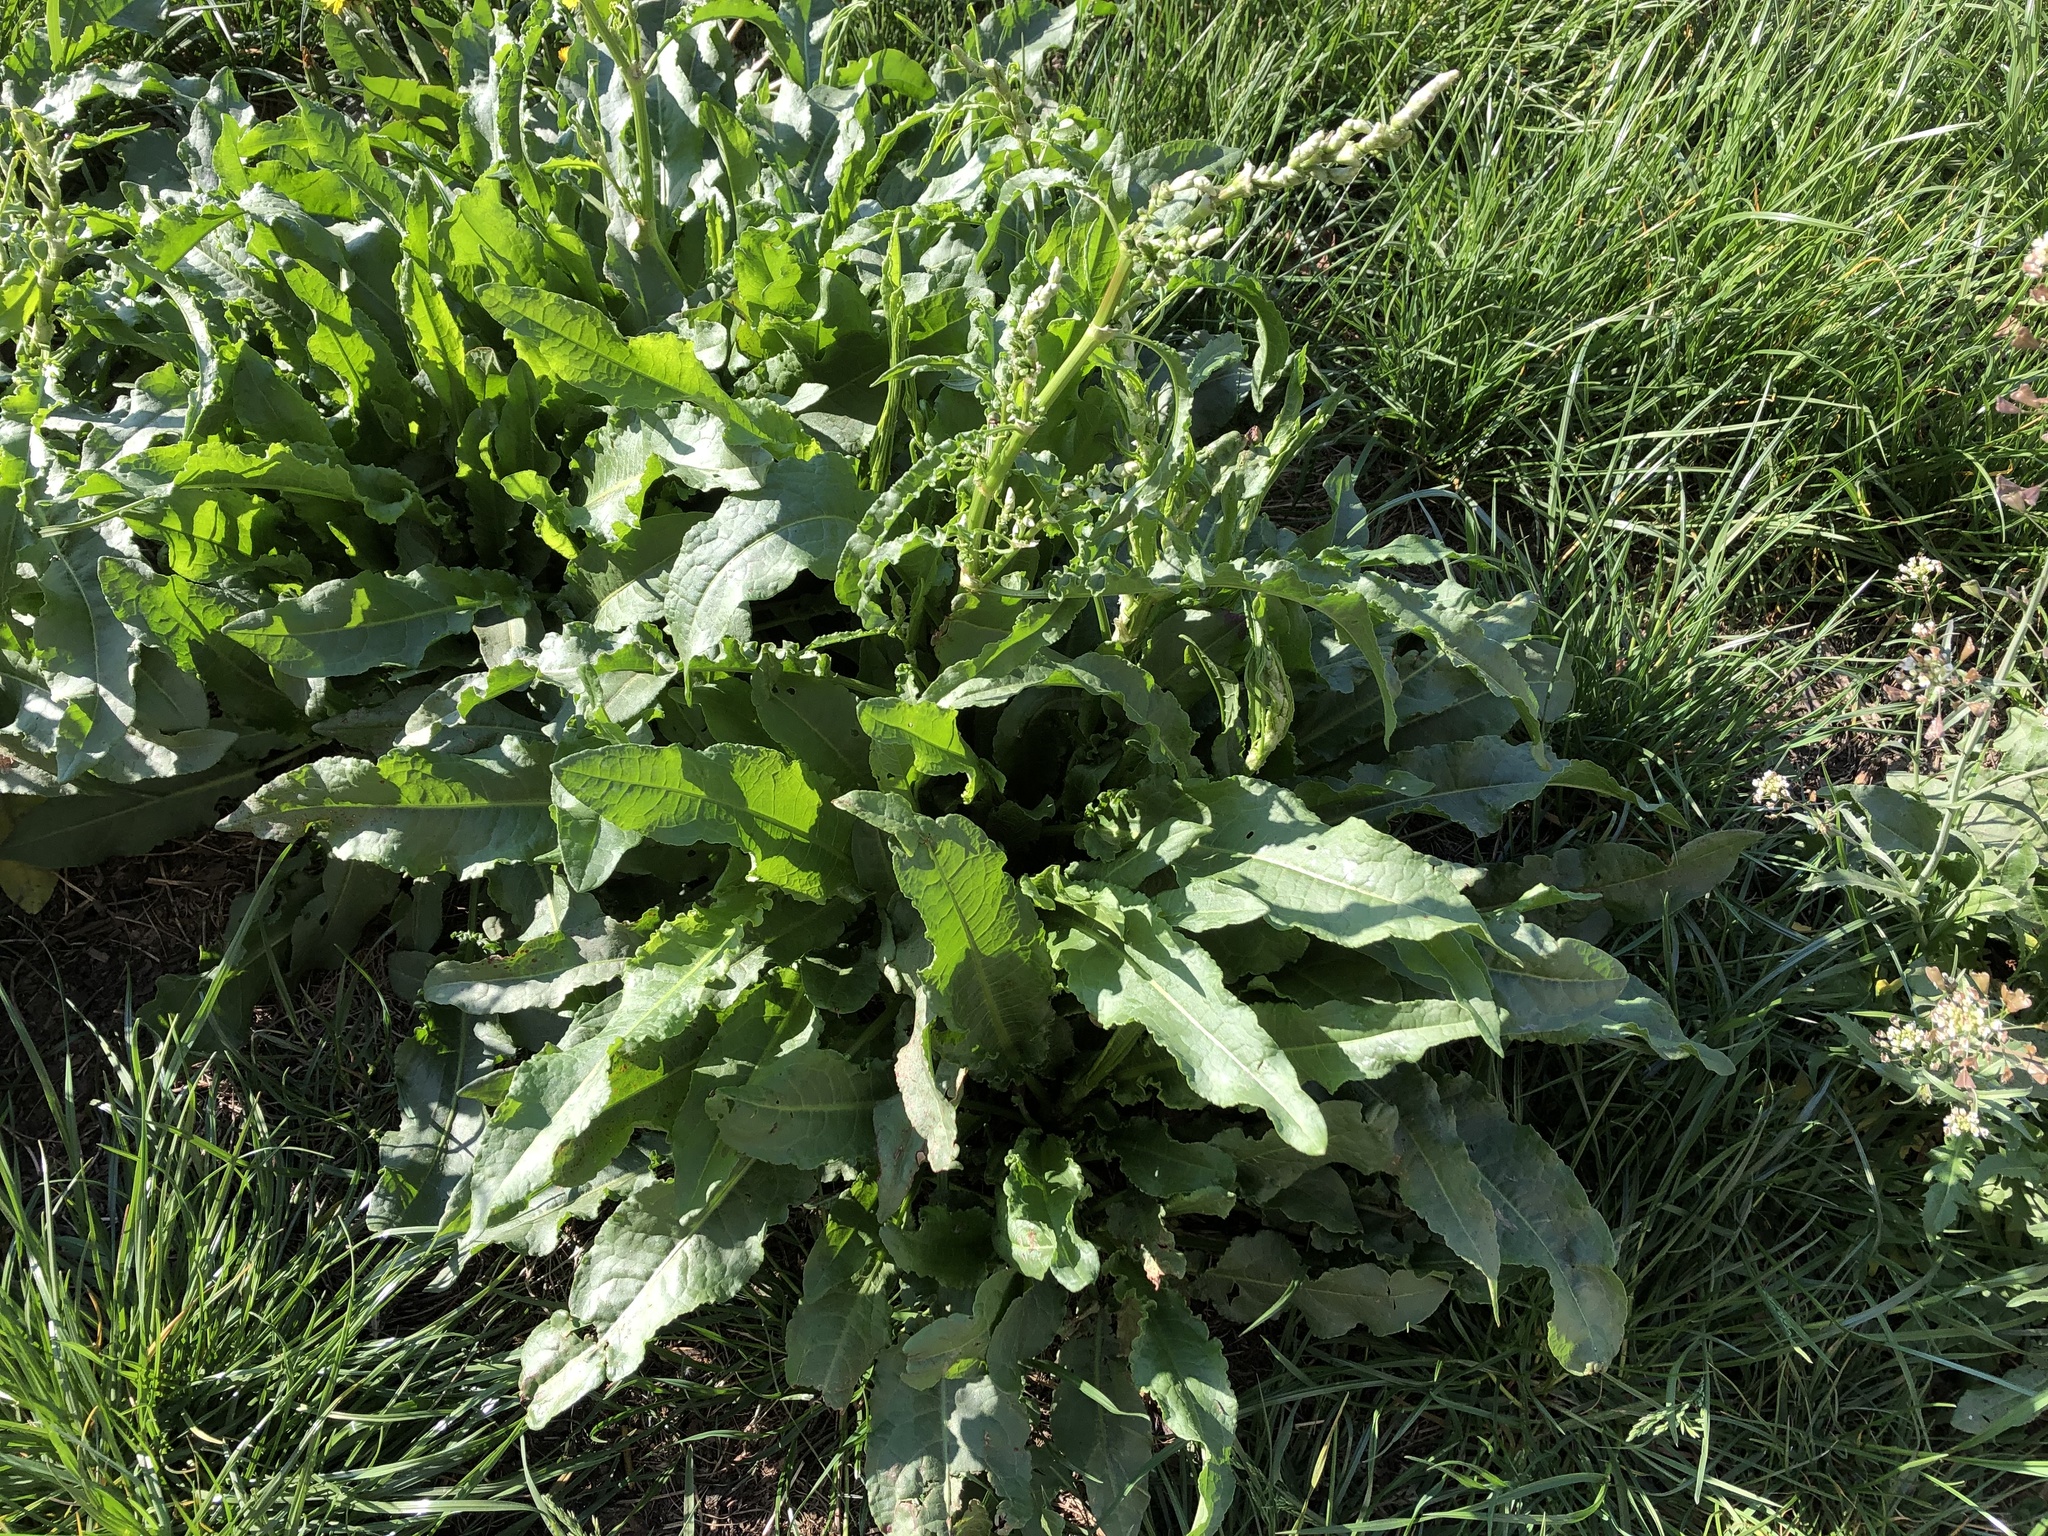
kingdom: Plantae
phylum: Tracheophyta
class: Magnoliopsida
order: Caryophyllales
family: Polygonaceae
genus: Rumex
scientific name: Rumex crispus
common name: Curled dock
